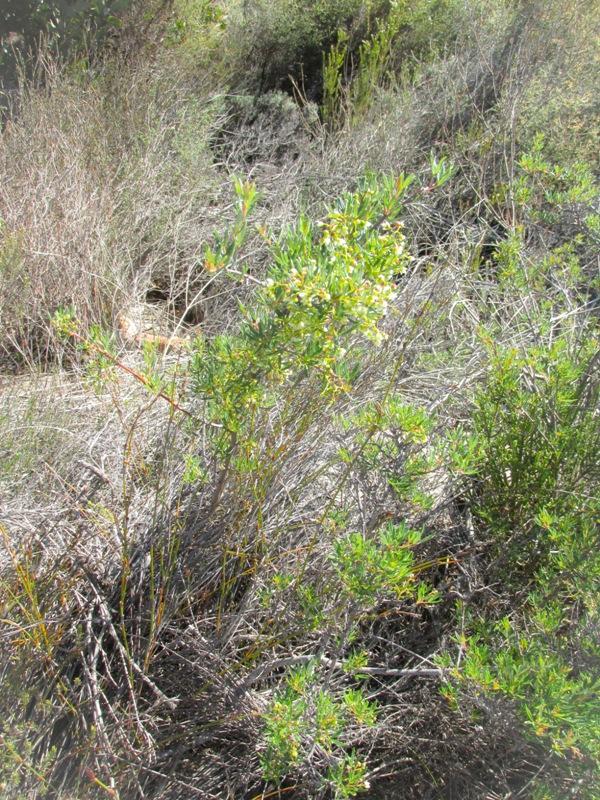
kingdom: Plantae
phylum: Tracheophyta
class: Magnoliopsida
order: Sapindales
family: Anacardiaceae
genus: Searsia
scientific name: Searsia rosmarinifolia
